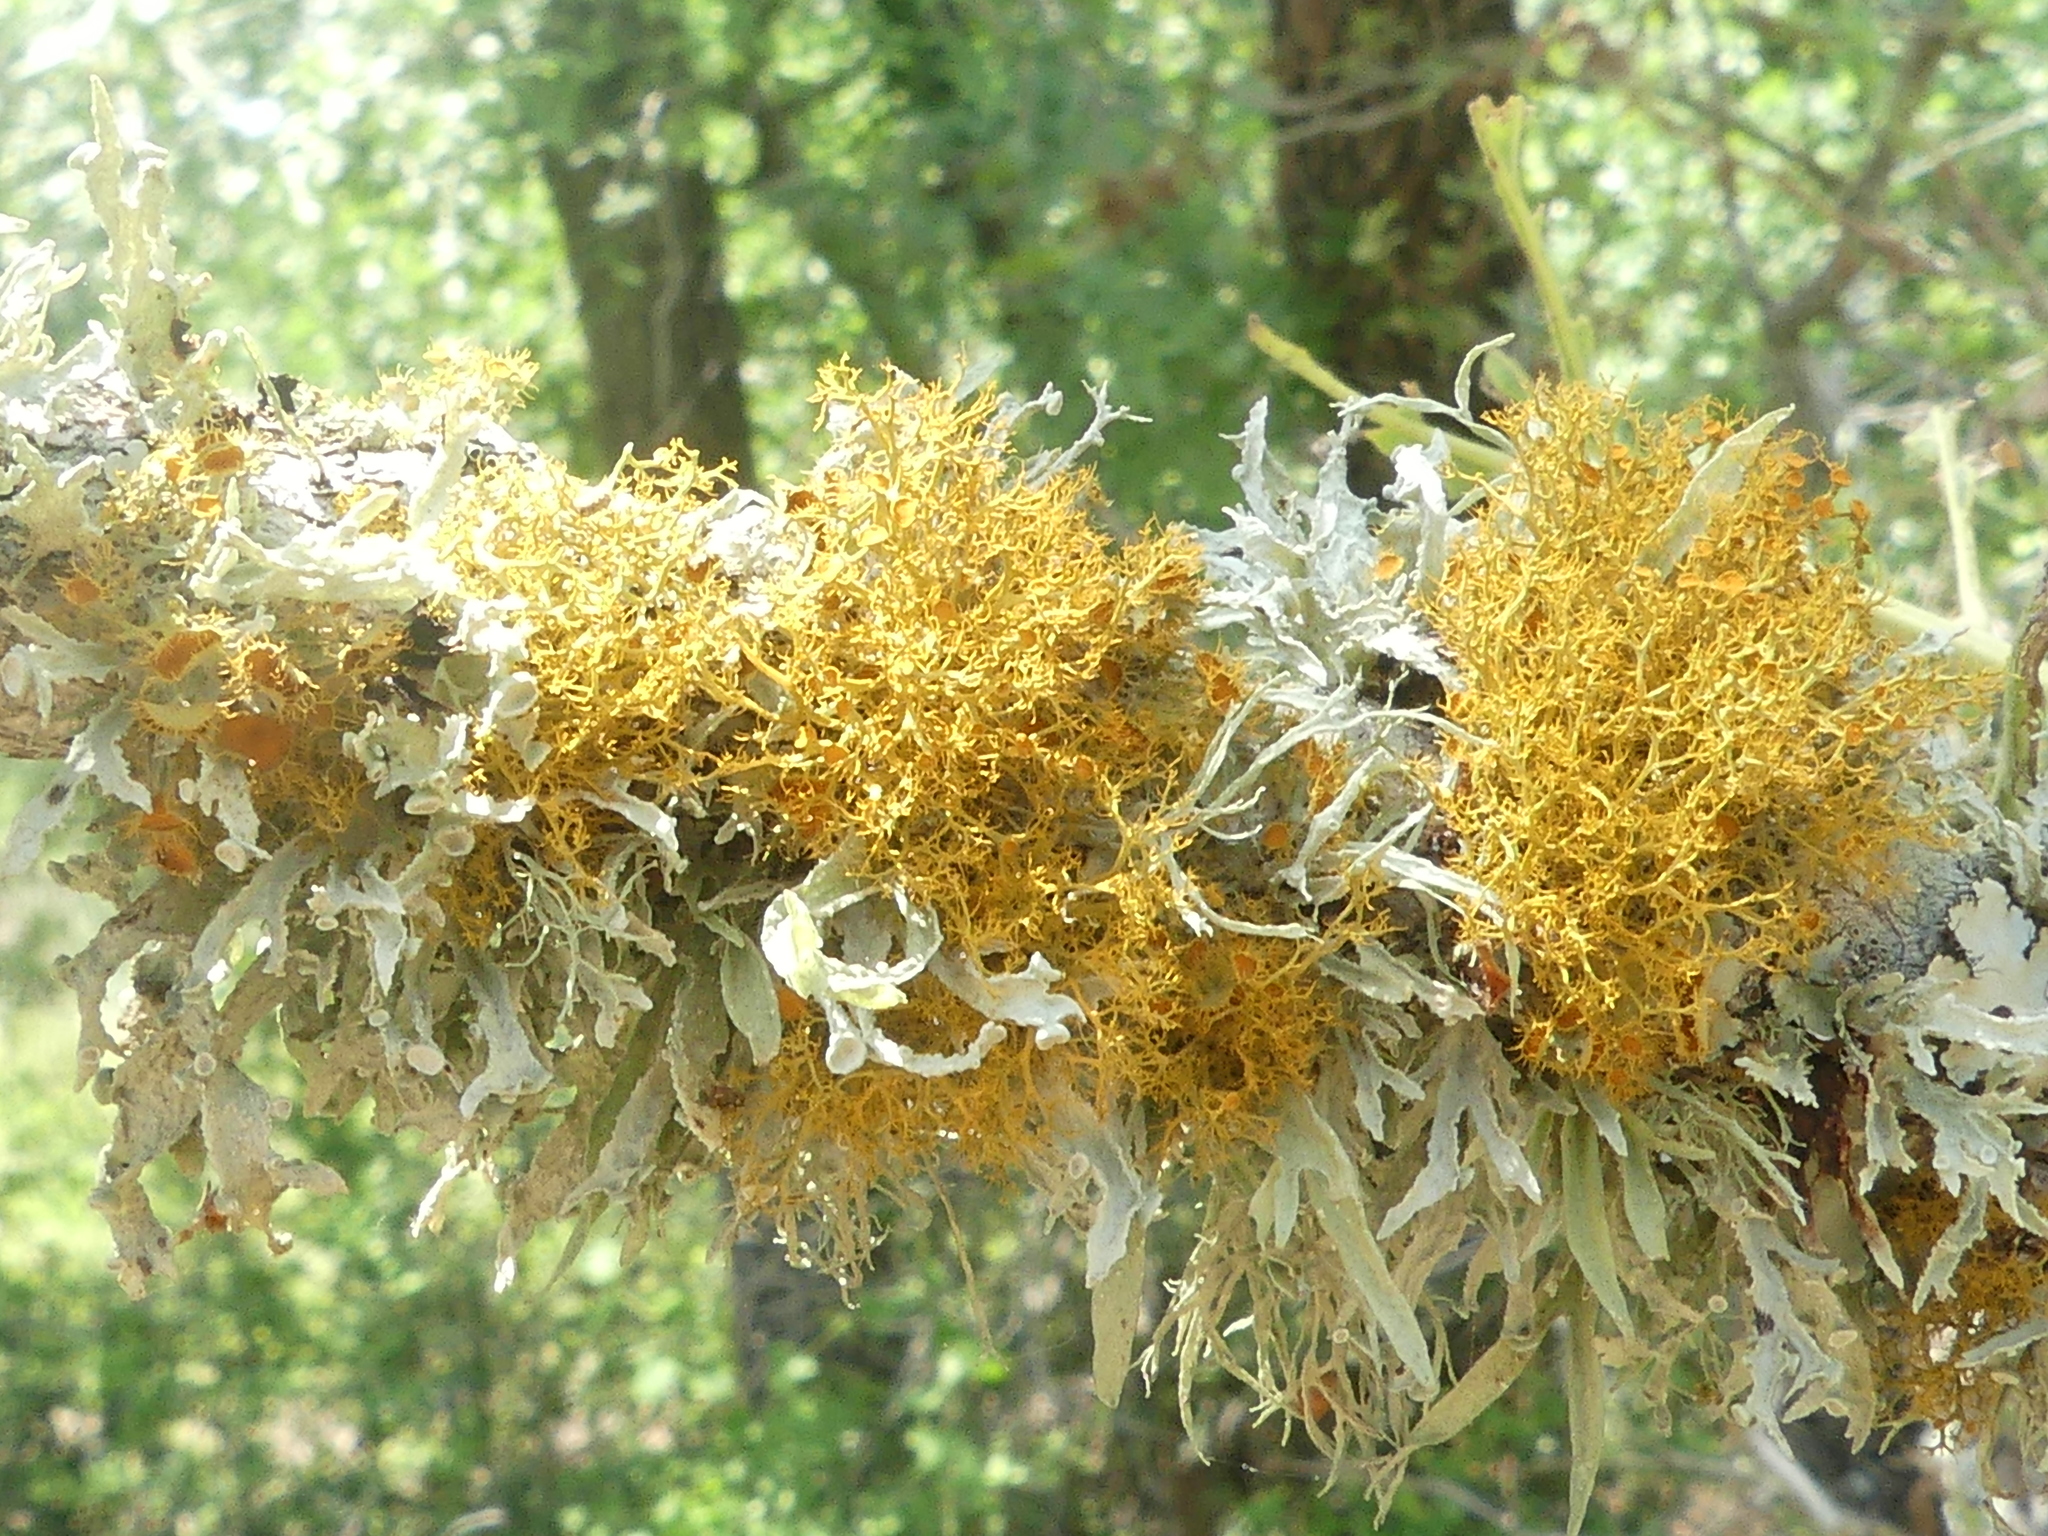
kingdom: Fungi
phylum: Ascomycota
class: Lecanoromycetes
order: Teloschistales
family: Teloschistaceae
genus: Teloschistes
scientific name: Teloschistes exilis
